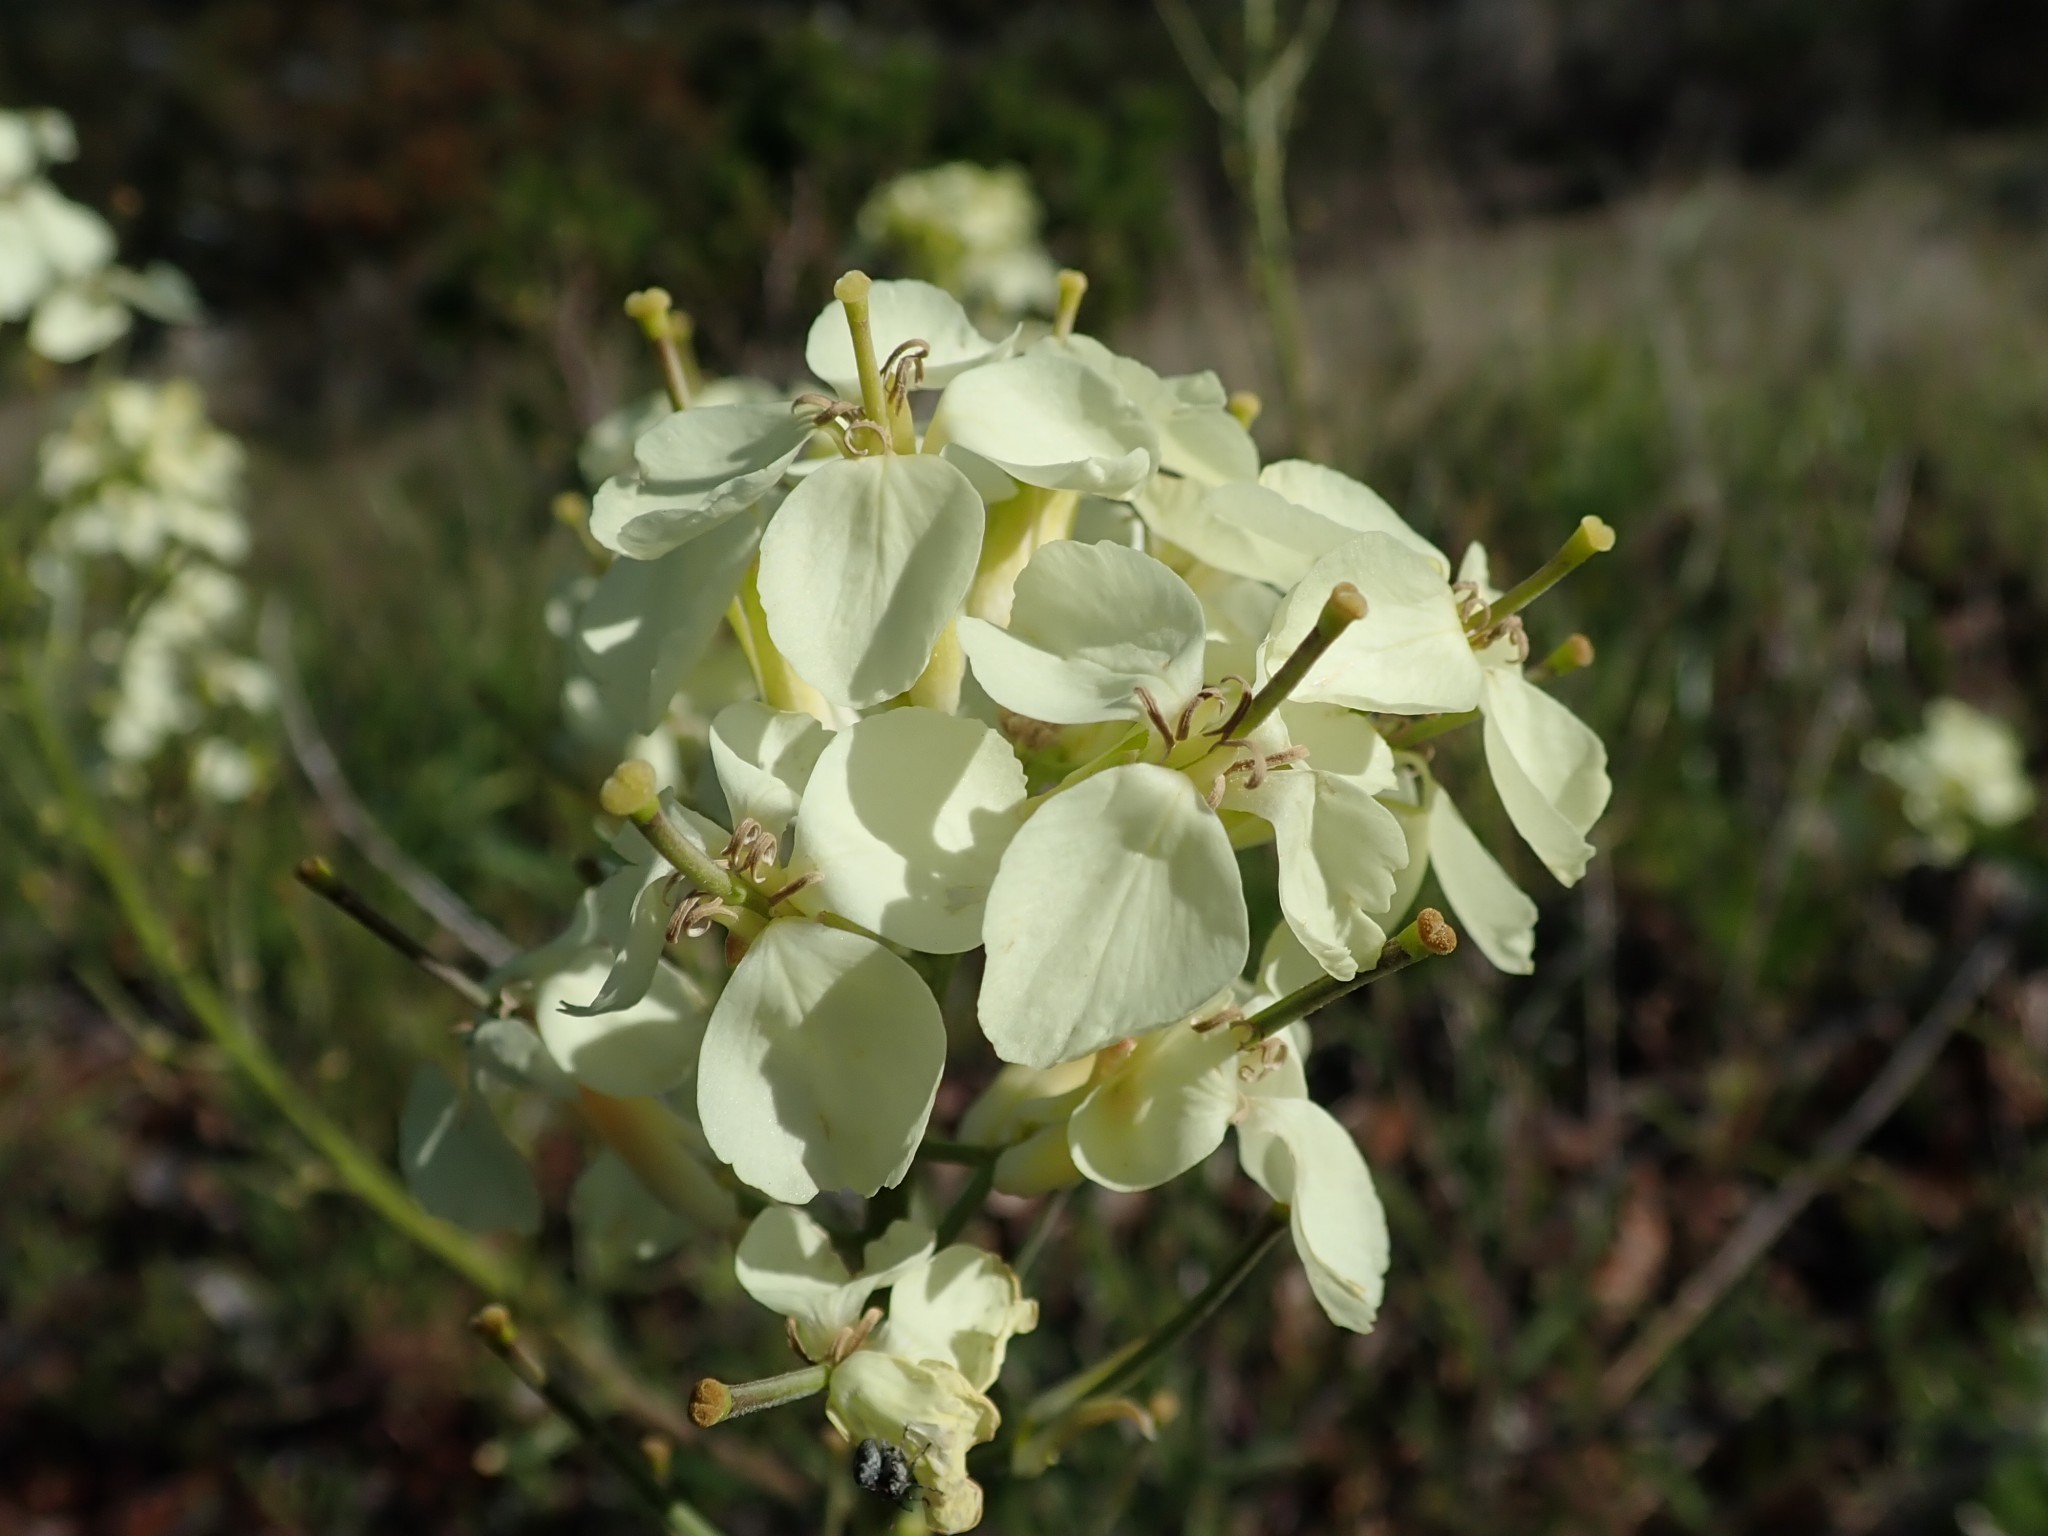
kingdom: Plantae
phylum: Tracheophyta
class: Magnoliopsida
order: Brassicales
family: Brassicaceae
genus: Erysimum
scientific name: Erysimum franciscanum
